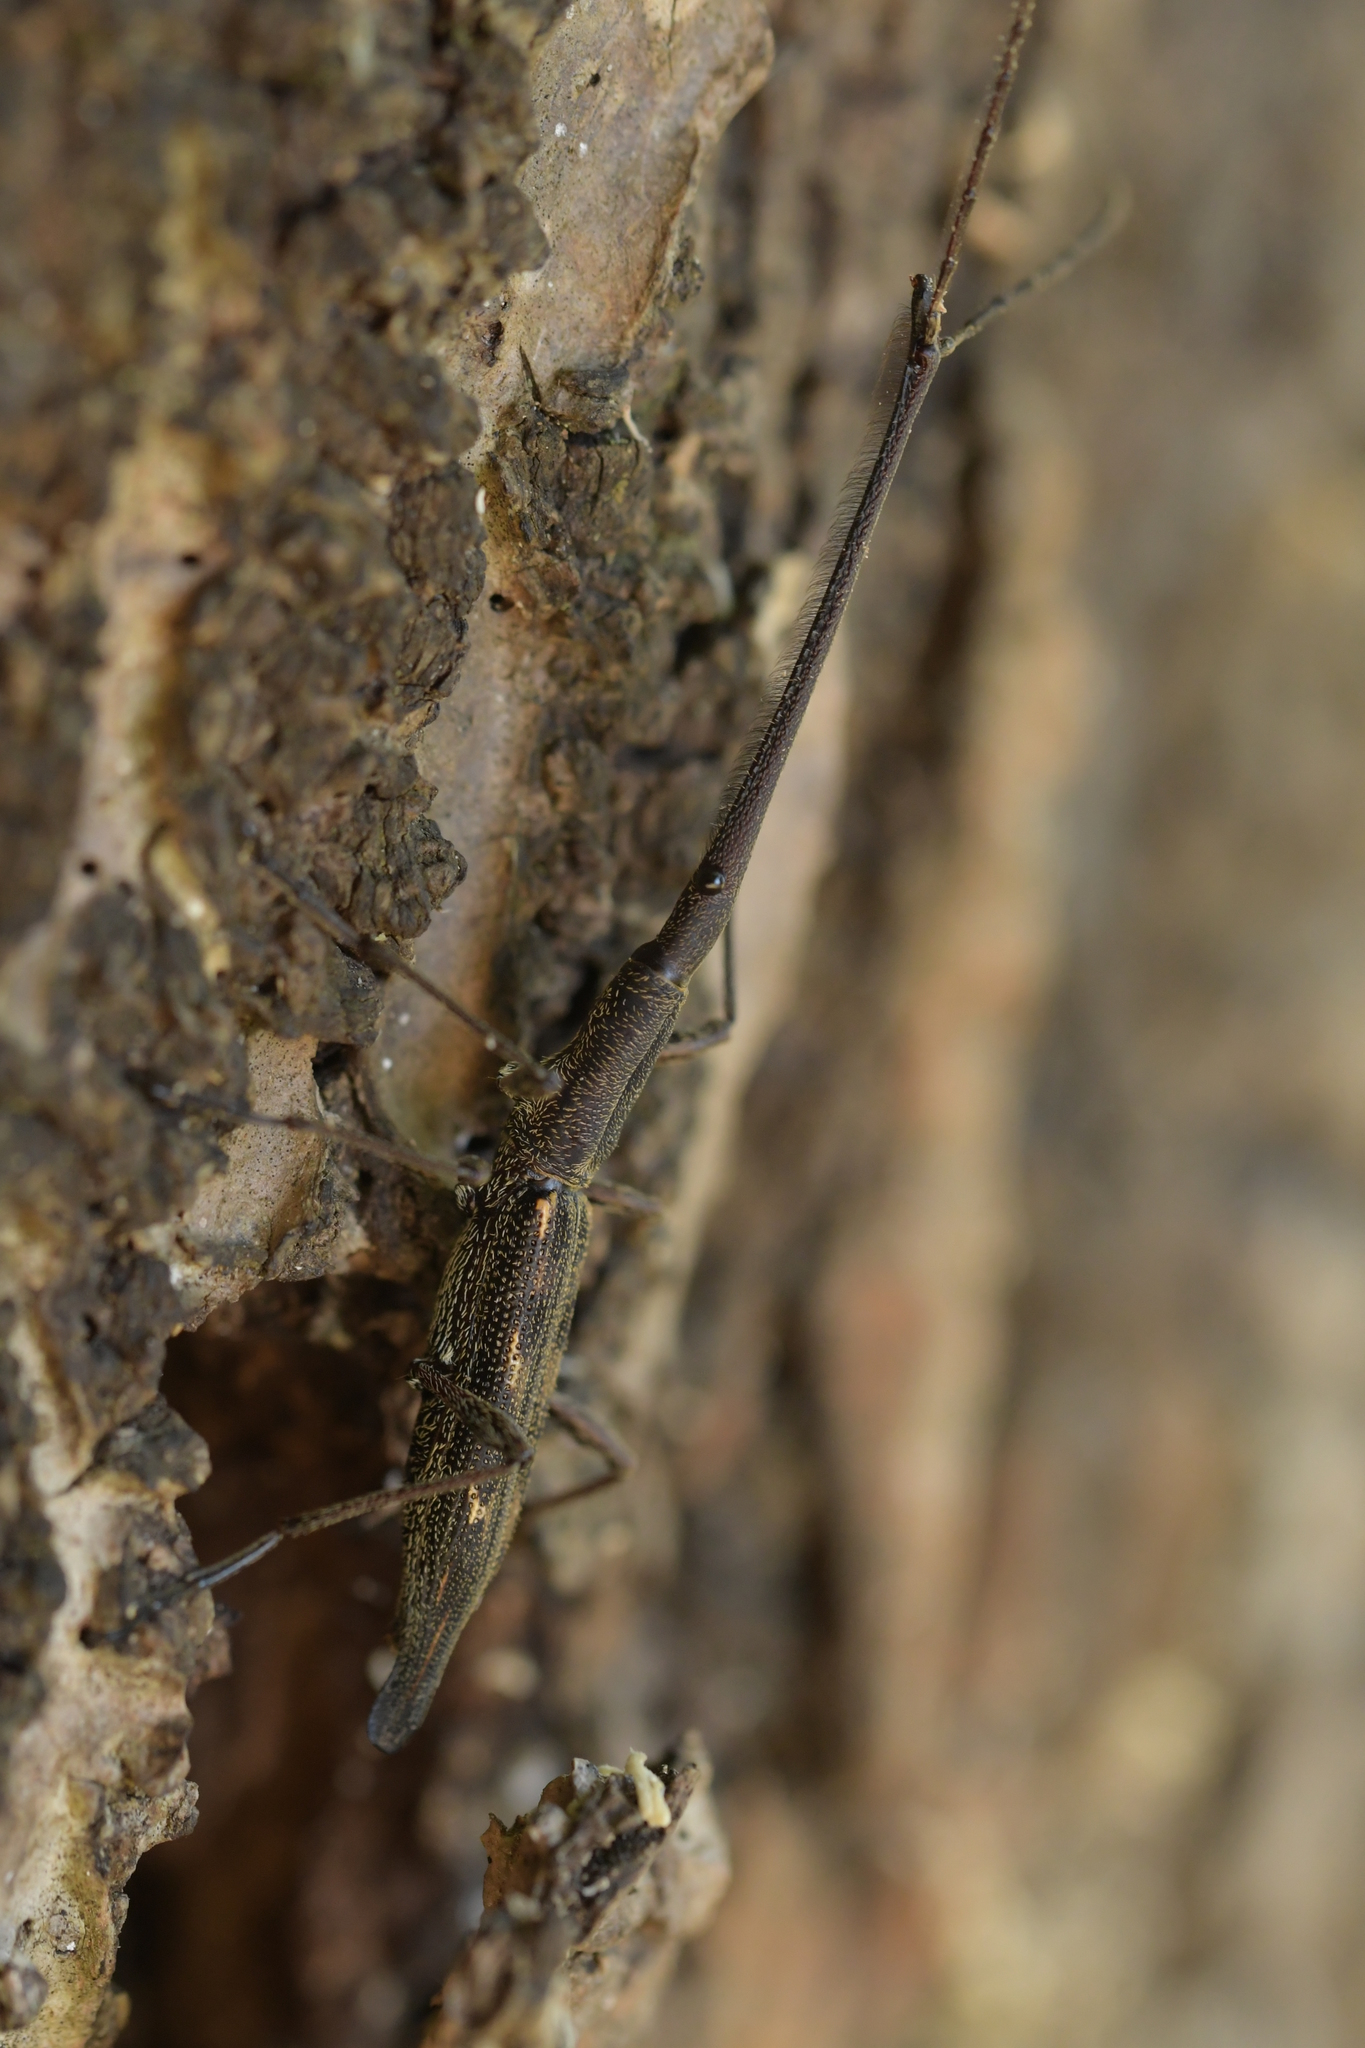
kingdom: Animalia
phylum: Arthropoda
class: Insecta
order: Coleoptera
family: Brentidae
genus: Lasiorhynchus
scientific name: Lasiorhynchus barbicornis
